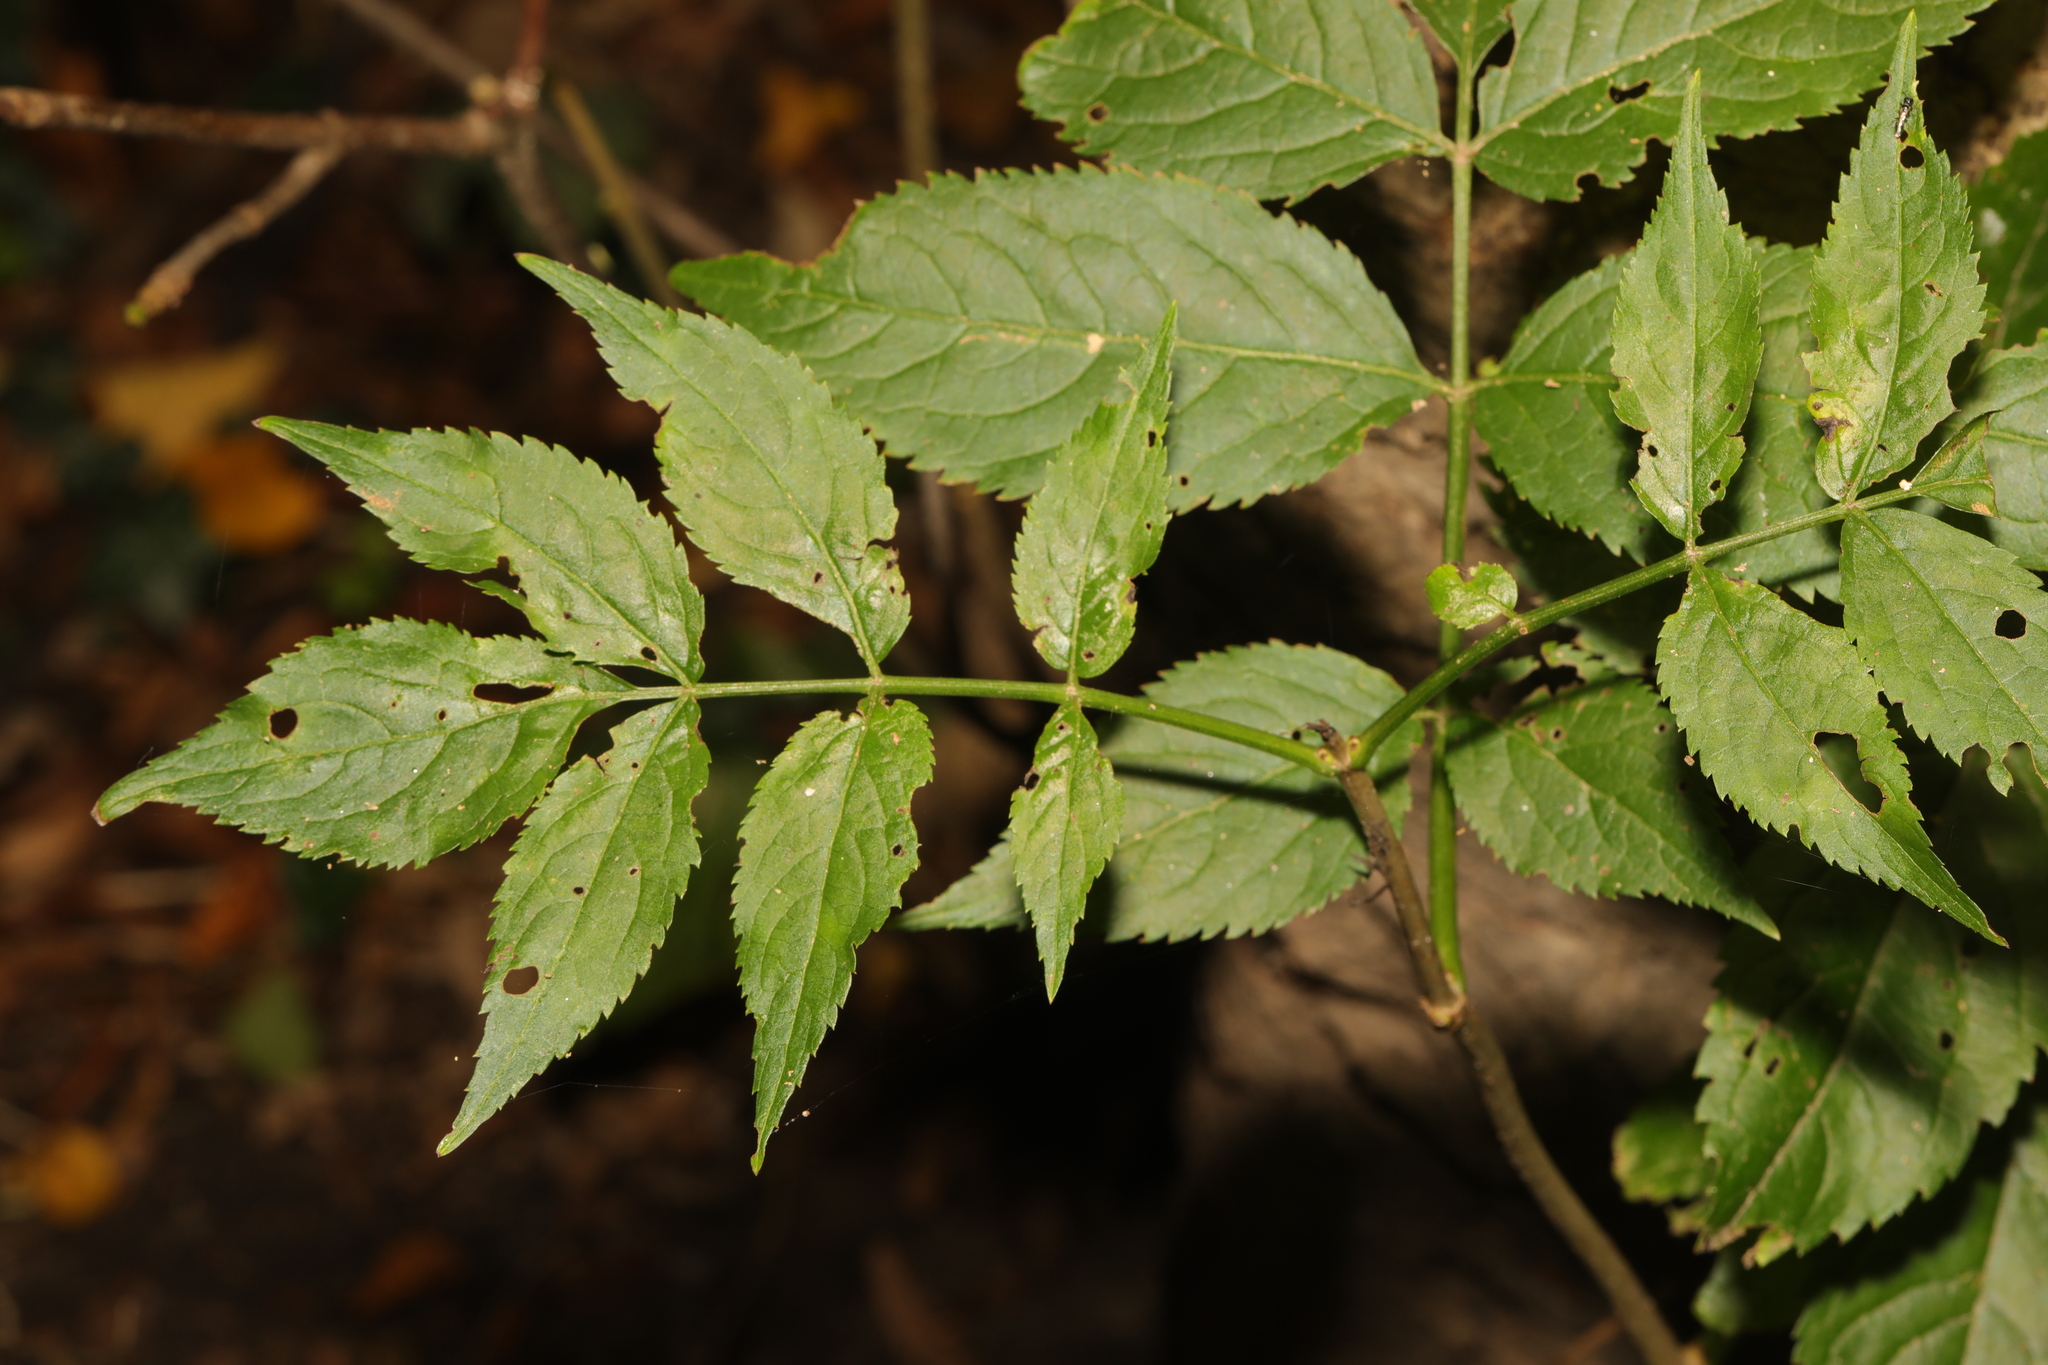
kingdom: Plantae
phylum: Tracheophyta
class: Magnoliopsida
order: Dipsacales
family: Viburnaceae
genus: Sambucus
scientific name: Sambucus nigra
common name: Elder
